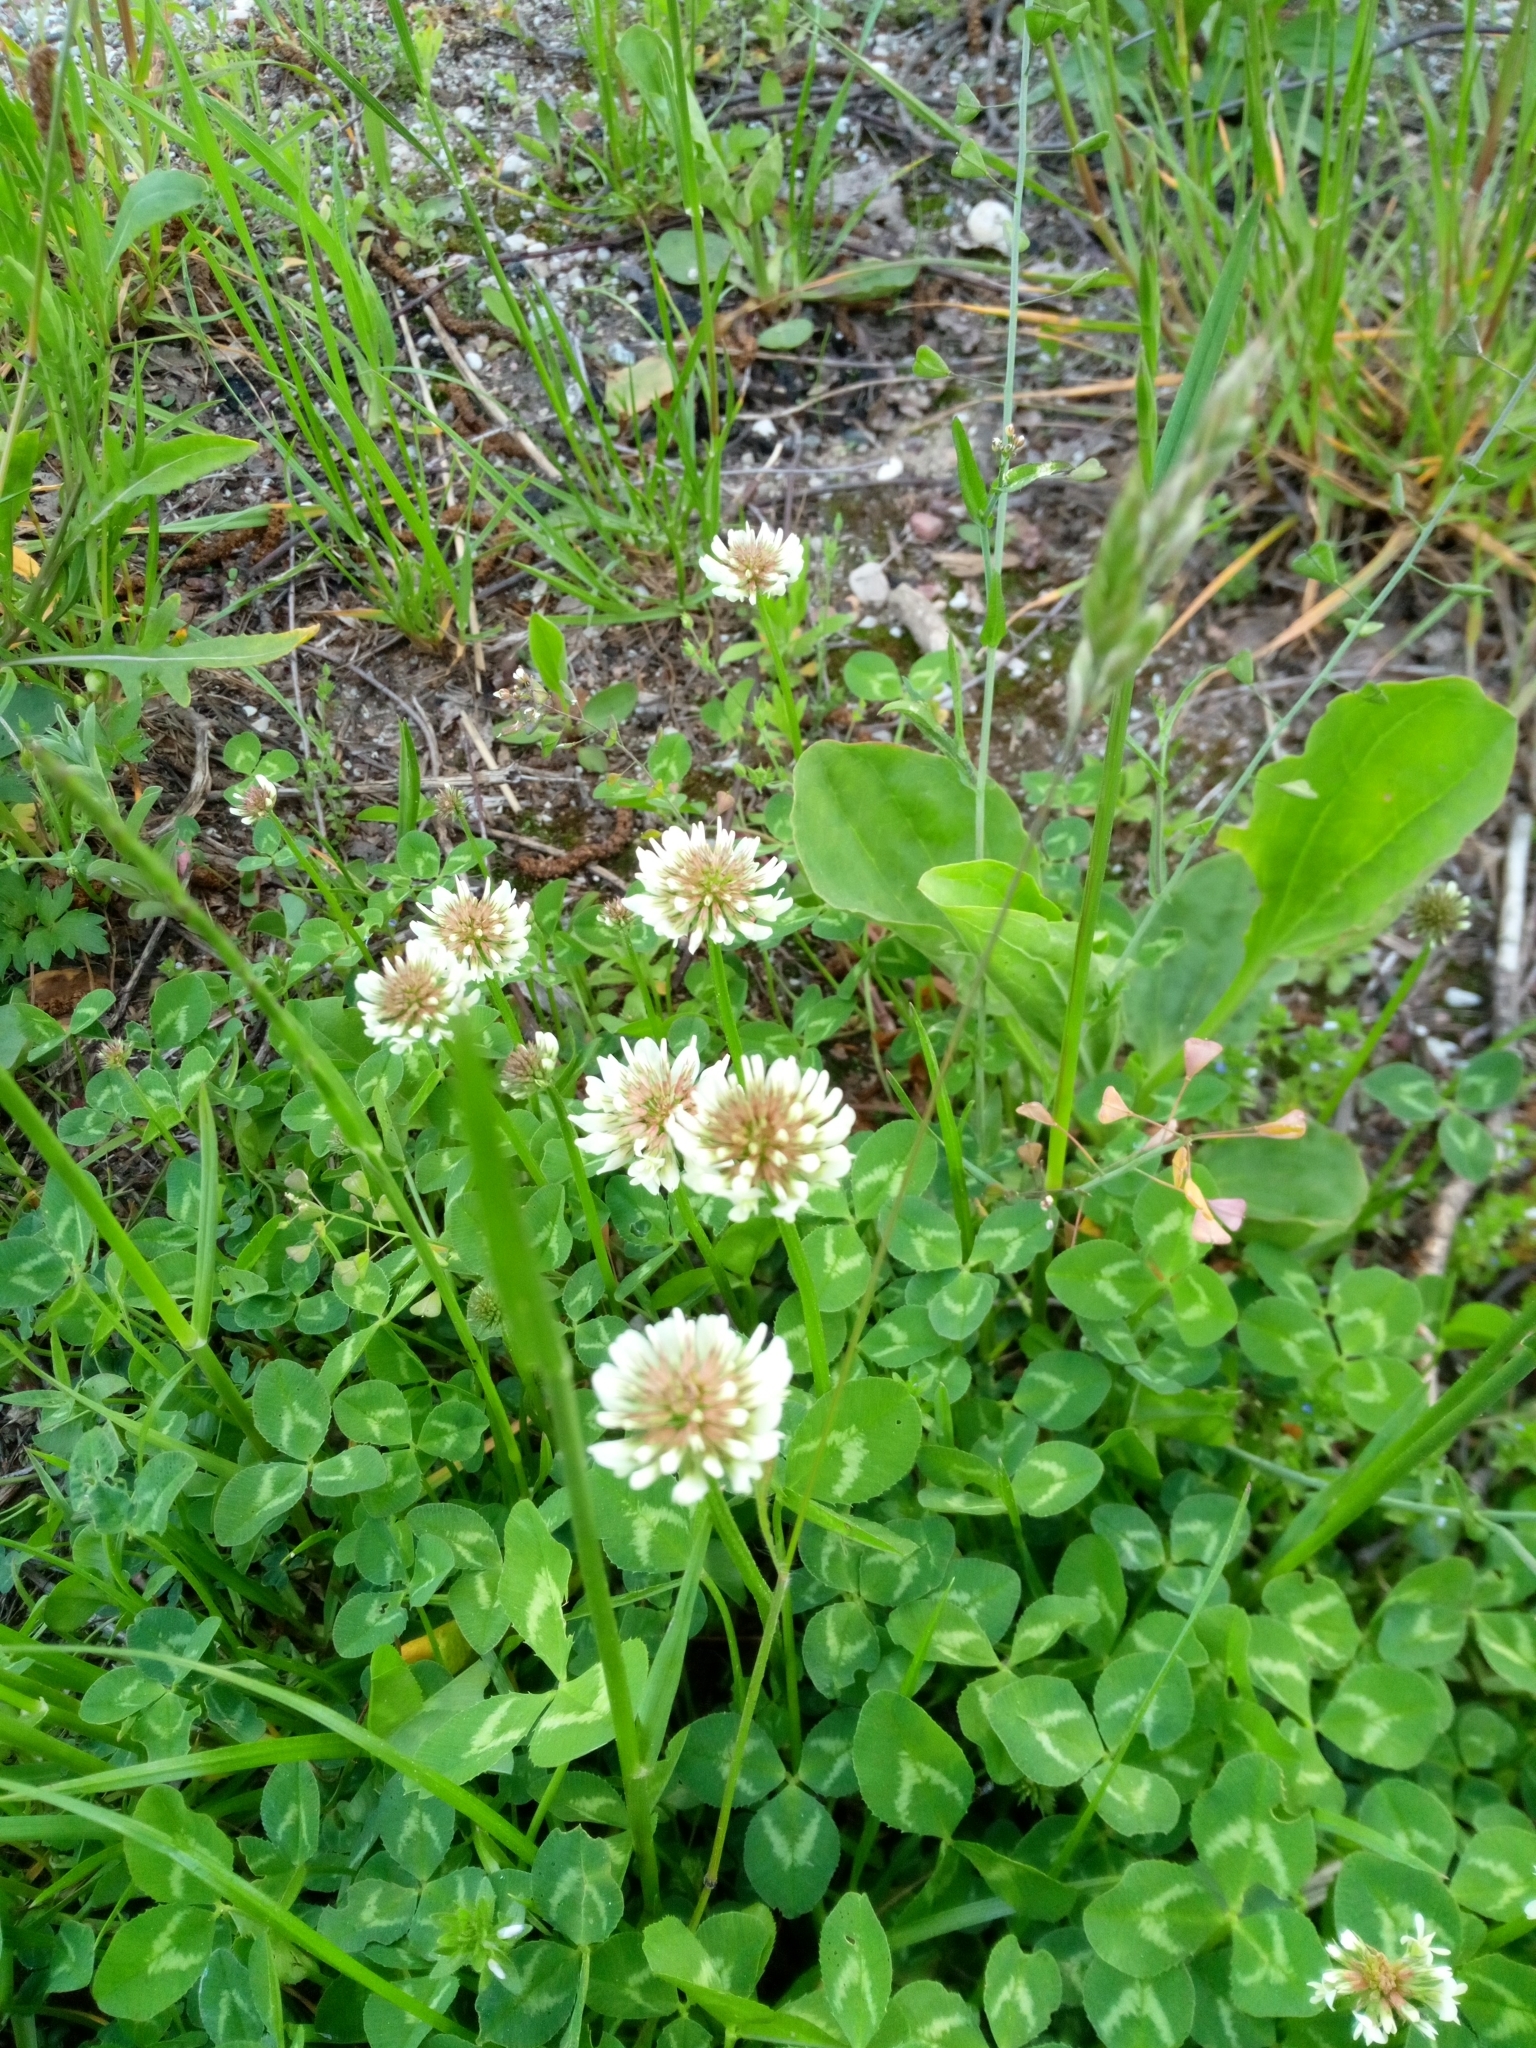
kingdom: Plantae
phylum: Tracheophyta
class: Magnoliopsida
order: Fabales
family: Fabaceae
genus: Trifolium
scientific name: Trifolium repens
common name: White clover
